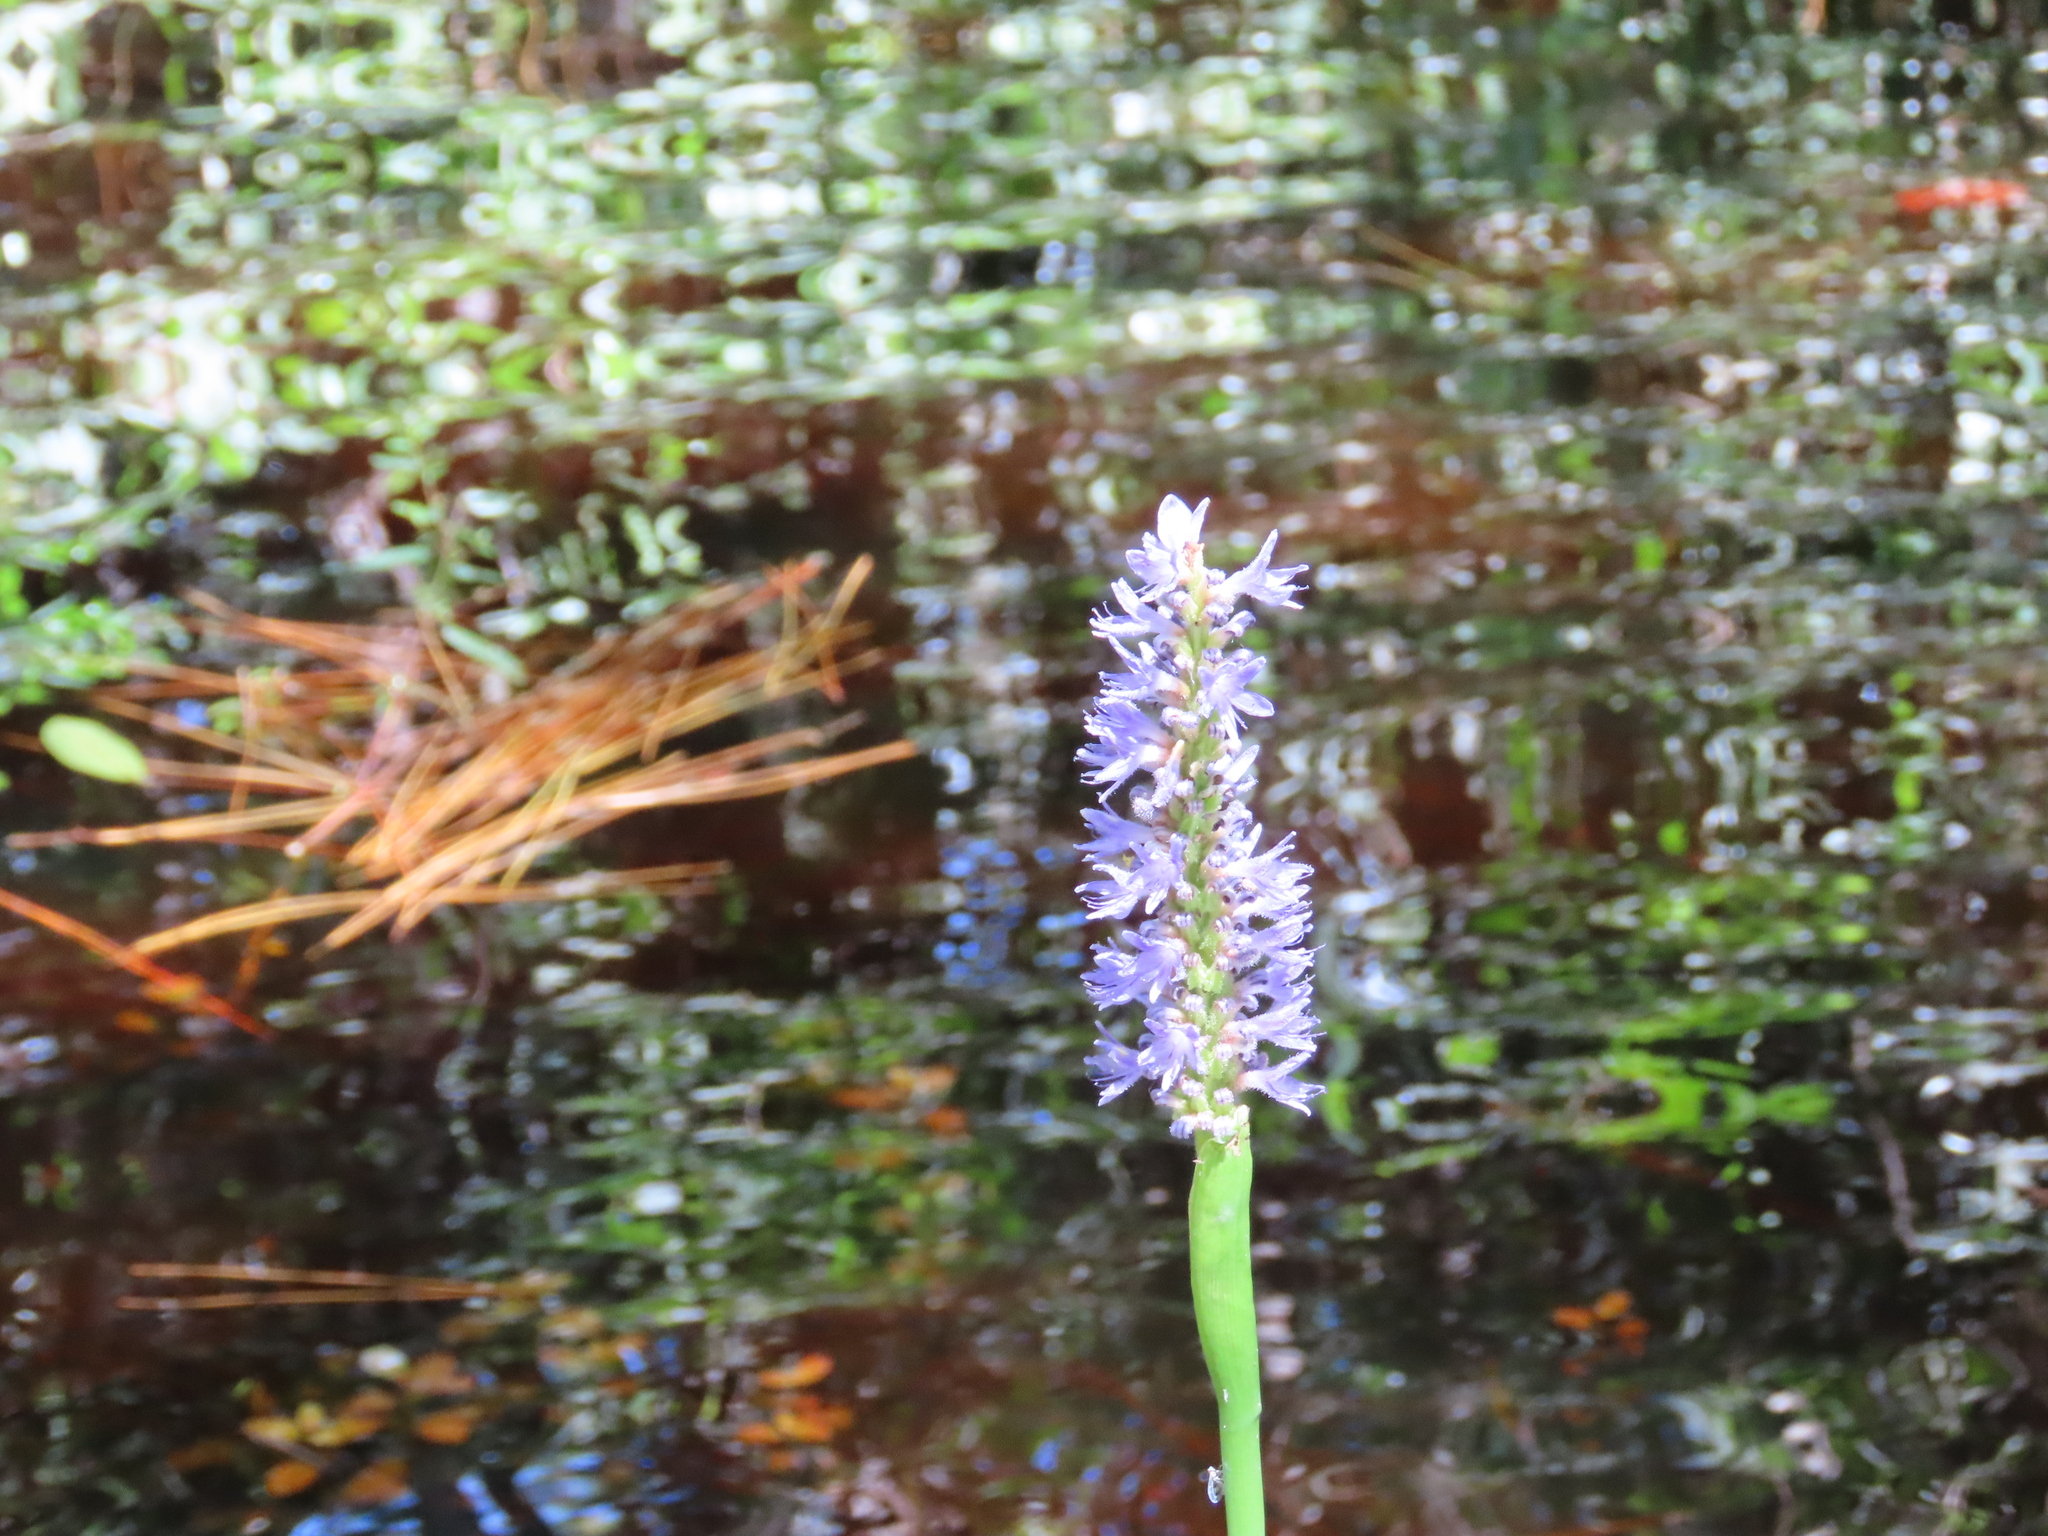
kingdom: Plantae
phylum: Tracheophyta
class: Liliopsida
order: Commelinales
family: Pontederiaceae
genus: Pontederia
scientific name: Pontederia cordata
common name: Pickerelweed
